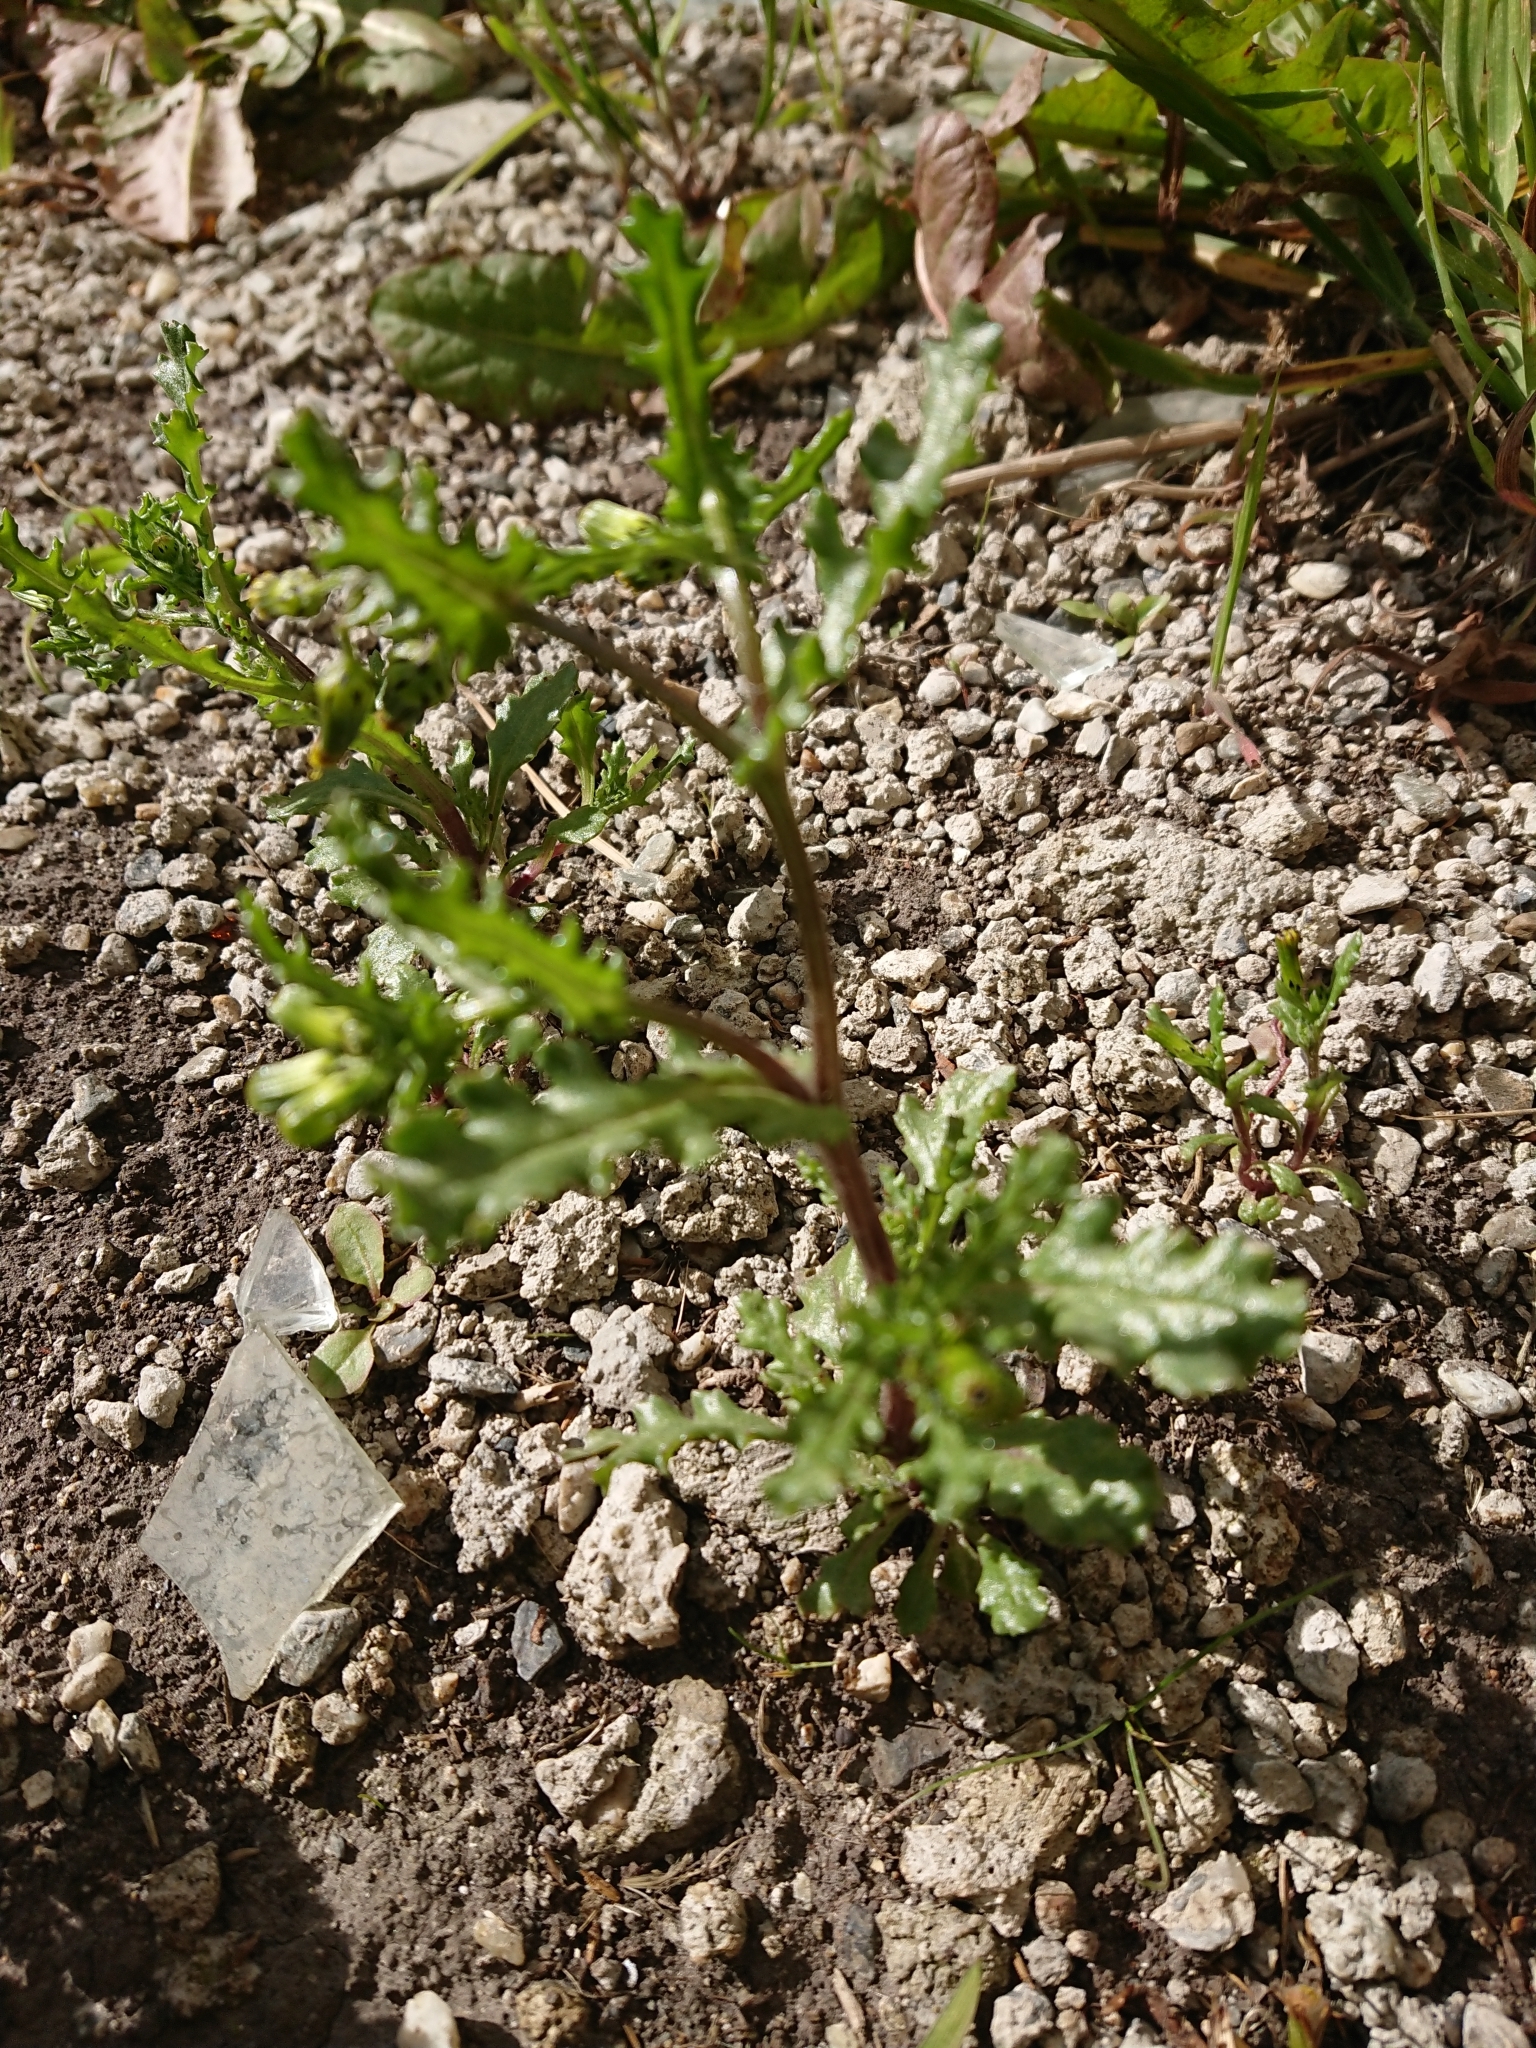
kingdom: Plantae
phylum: Tracheophyta
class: Magnoliopsida
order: Asterales
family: Asteraceae
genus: Senecio
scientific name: Senecio vulgaris
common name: Old-man-in-the-spring
